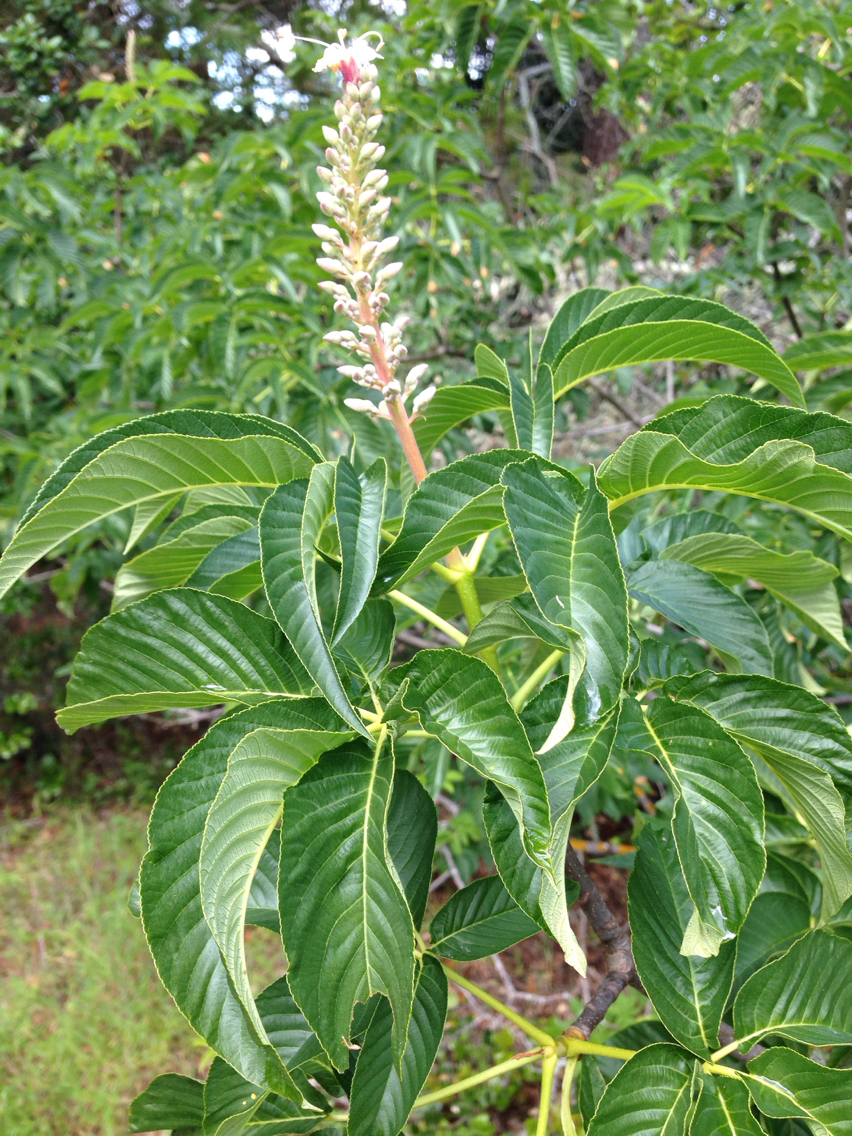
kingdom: Plantae
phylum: Tracheophyta
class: Magnoliopsida
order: Sapindales
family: Sapindaceae
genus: Aesculus
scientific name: Aesculus californica
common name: California buckeye
